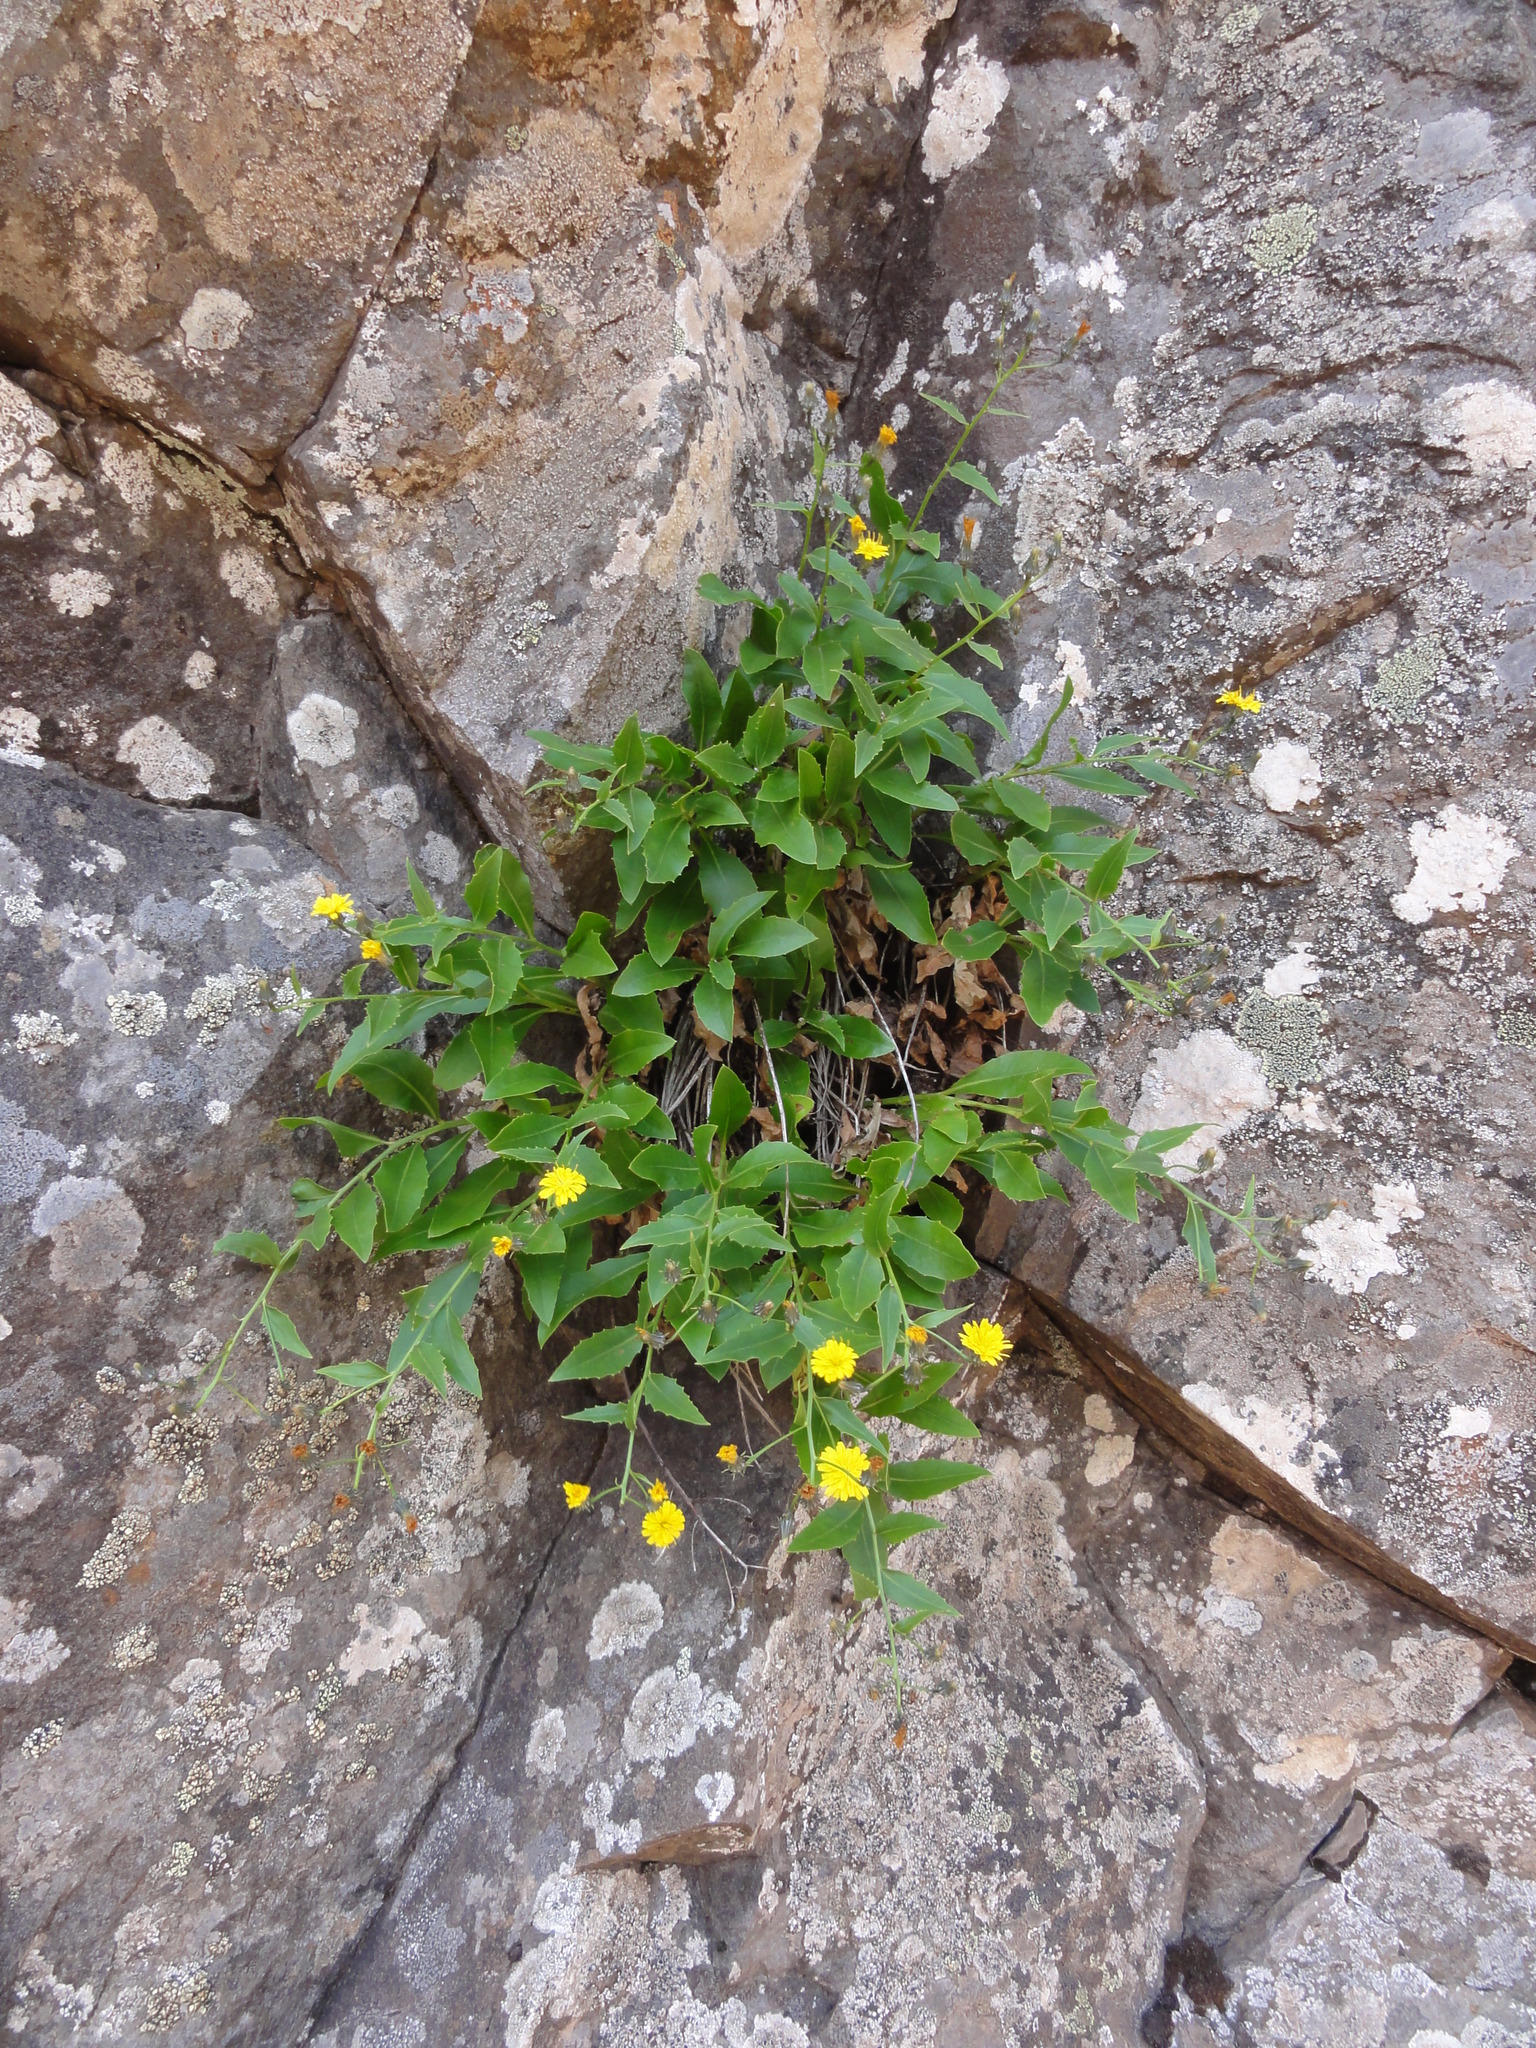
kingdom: Plantae
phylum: Tracheophyta
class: Magnoliopsida
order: Asterales
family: Asteraceae
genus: Tolpis
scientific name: Tolpis macrorhiza
